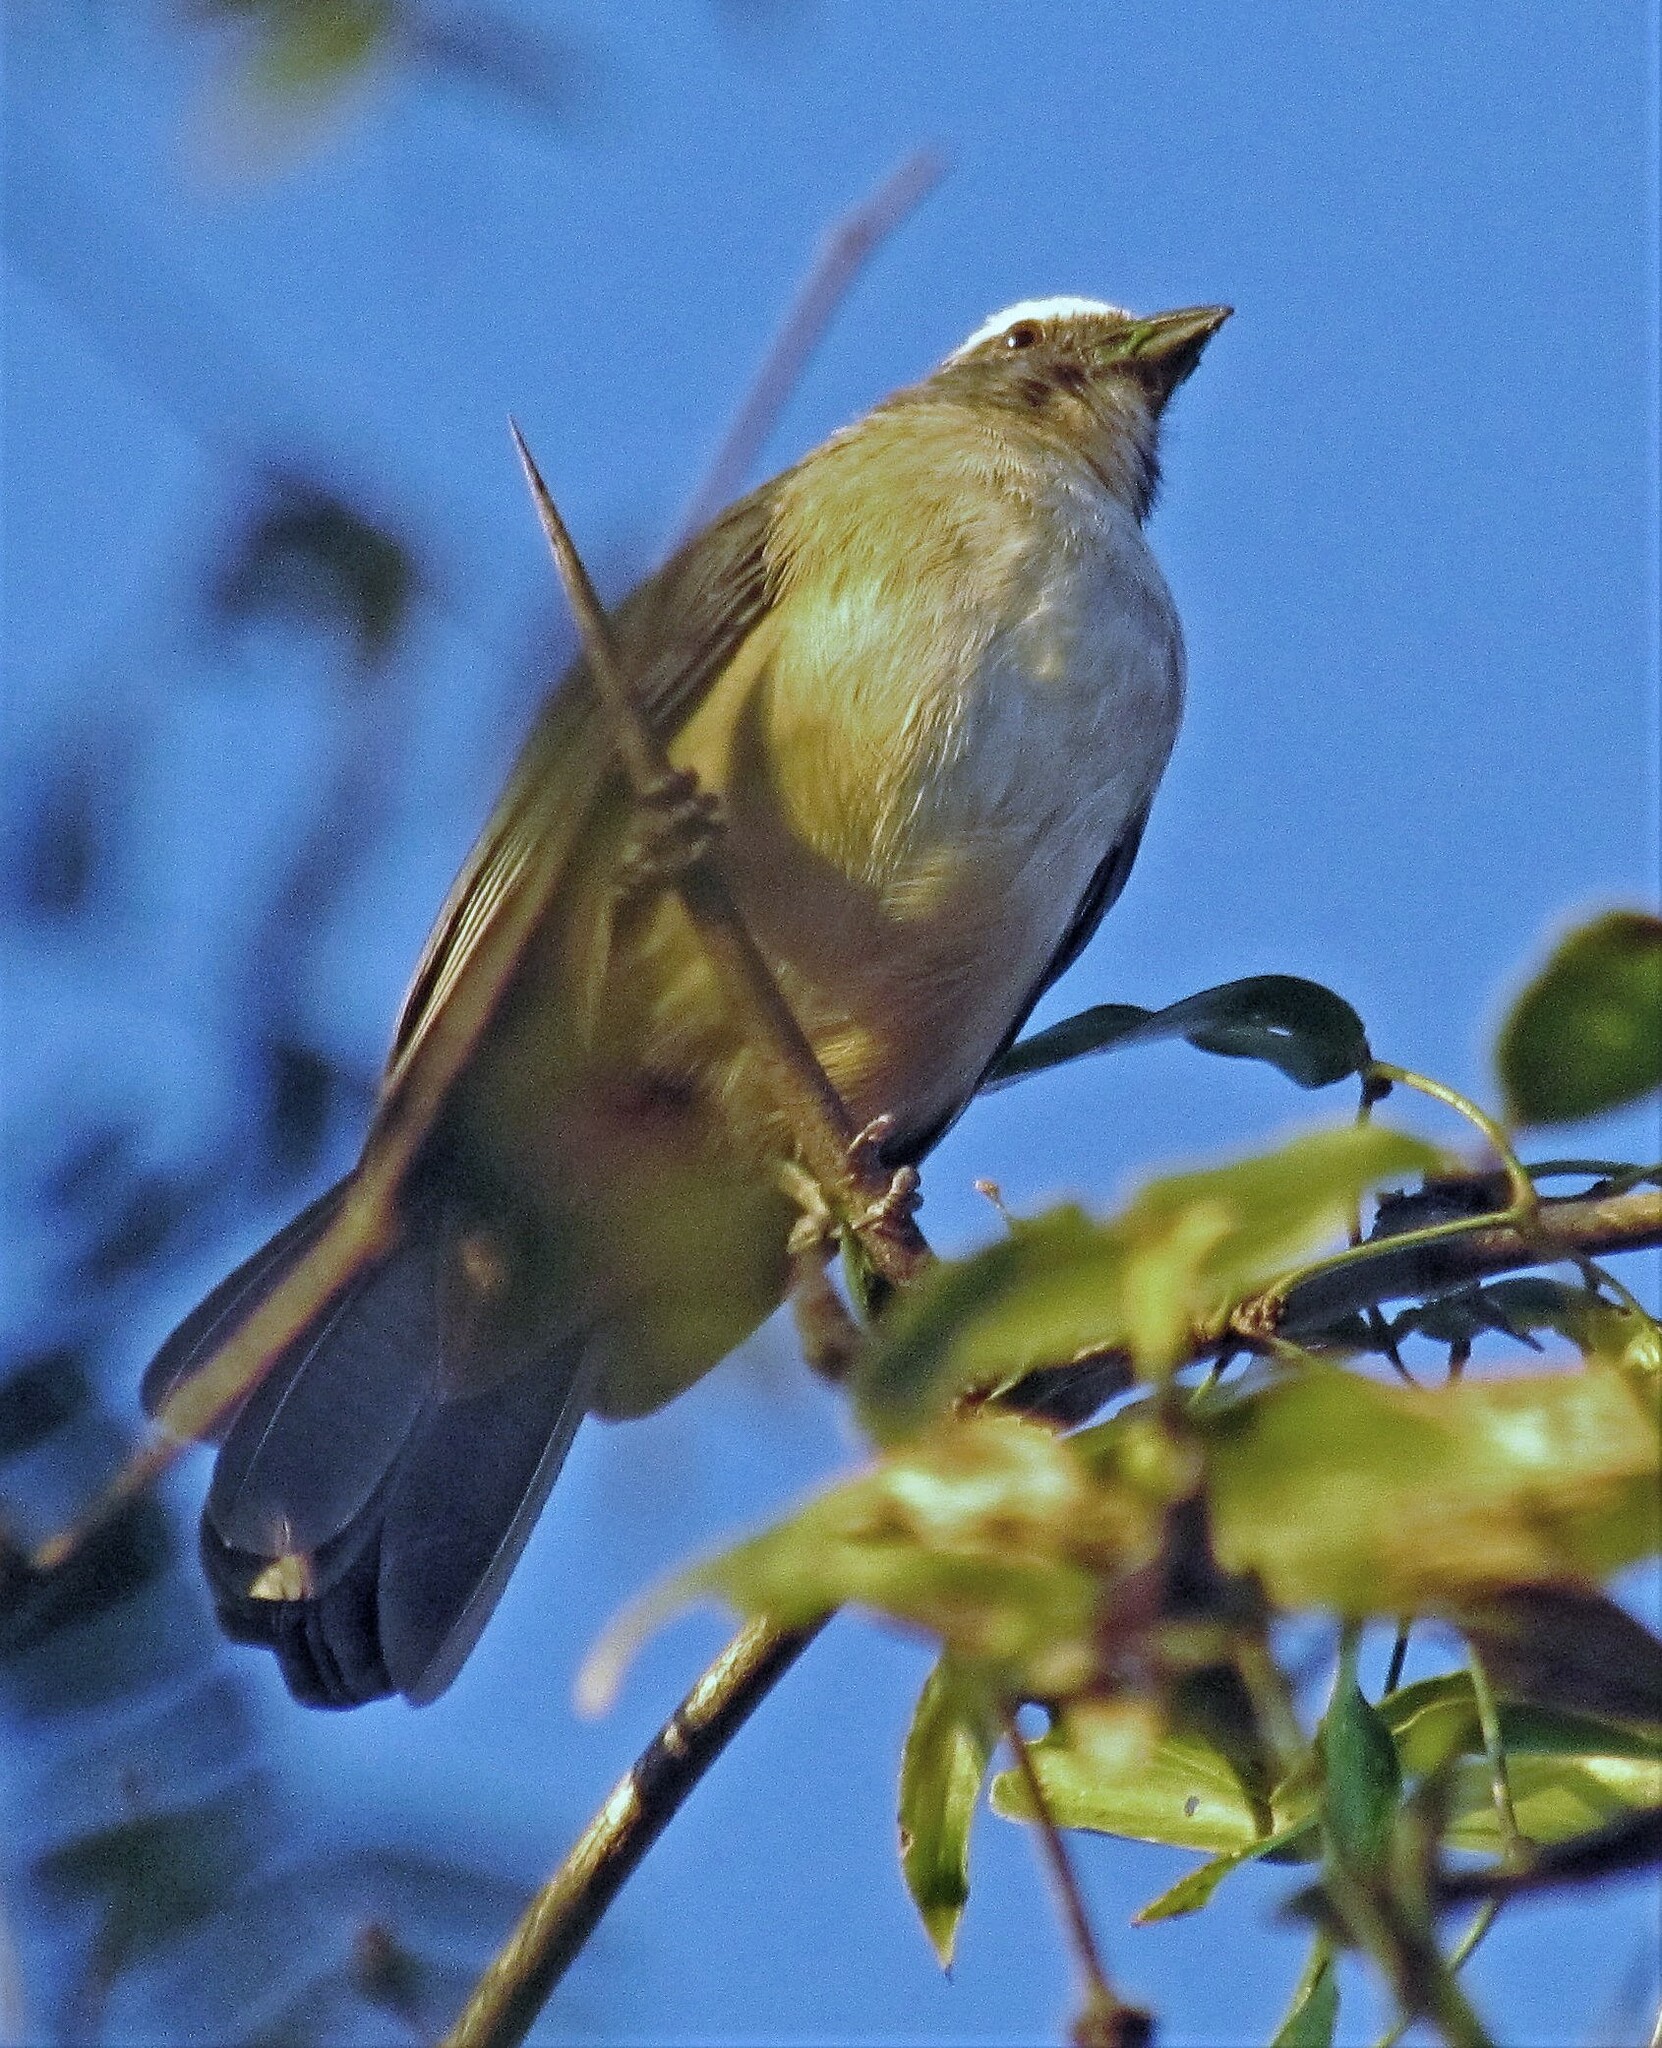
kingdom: Animalia
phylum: Chordata
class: Aves
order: Passeriformes
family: Thraupidae
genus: Saltator
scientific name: Saltator coerulescens
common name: Grayish saltator
